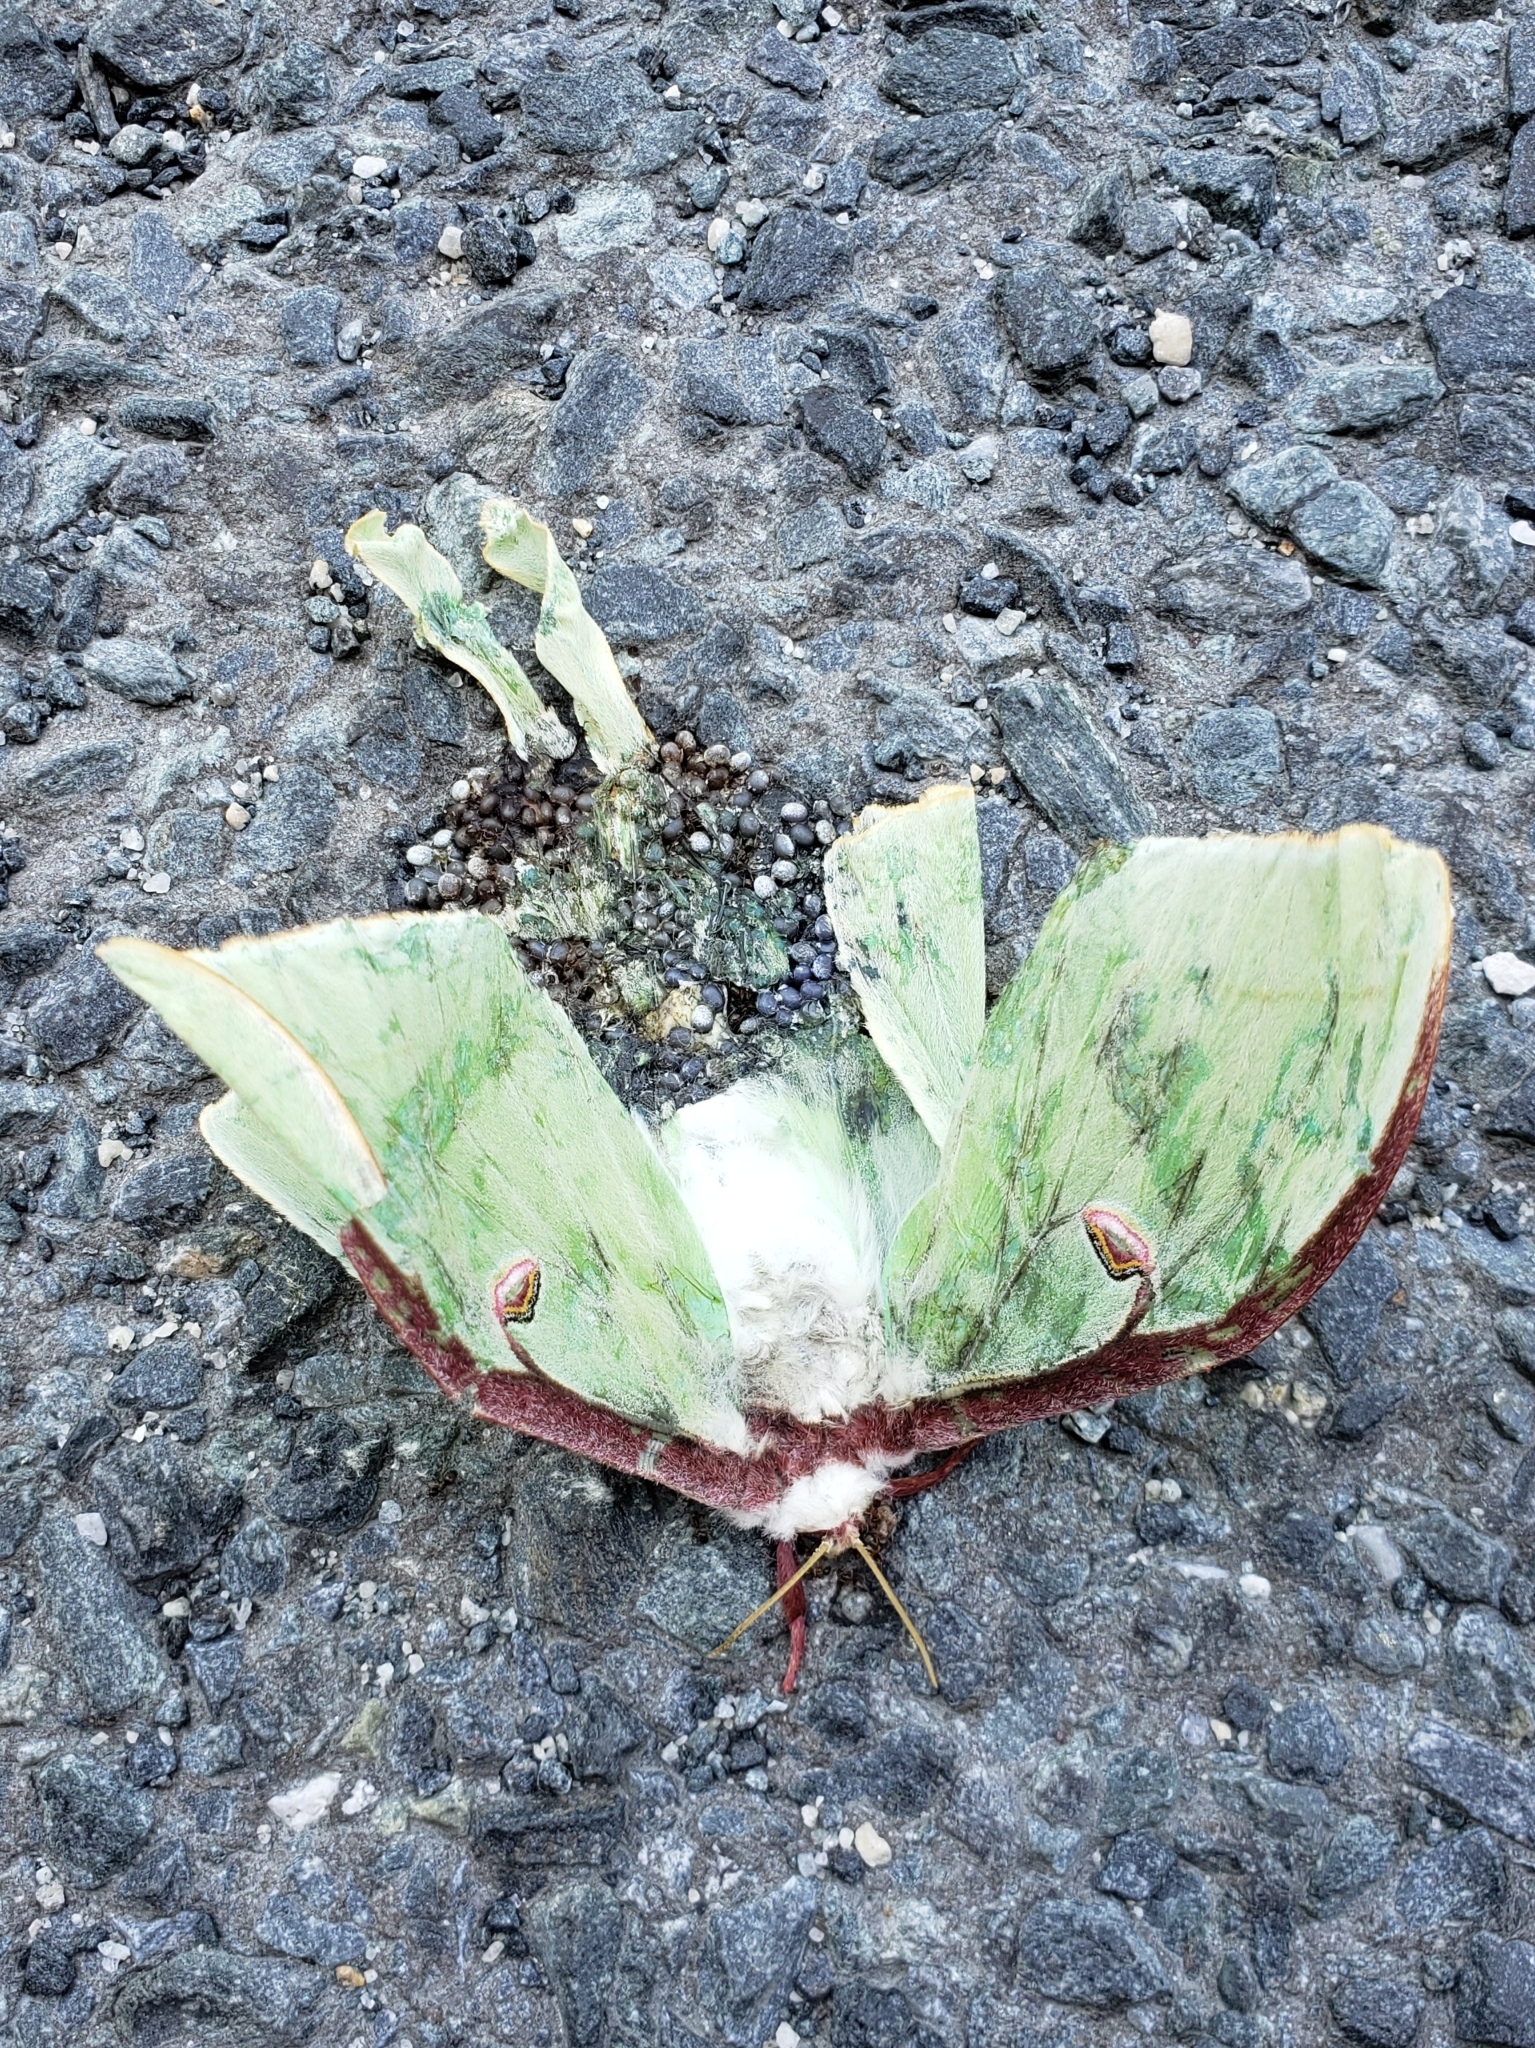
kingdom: Animalia
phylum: Arthropoda
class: Insecta
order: Lepidoptera
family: Saturniidae
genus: Actias
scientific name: Actias luna
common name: Luna moth
